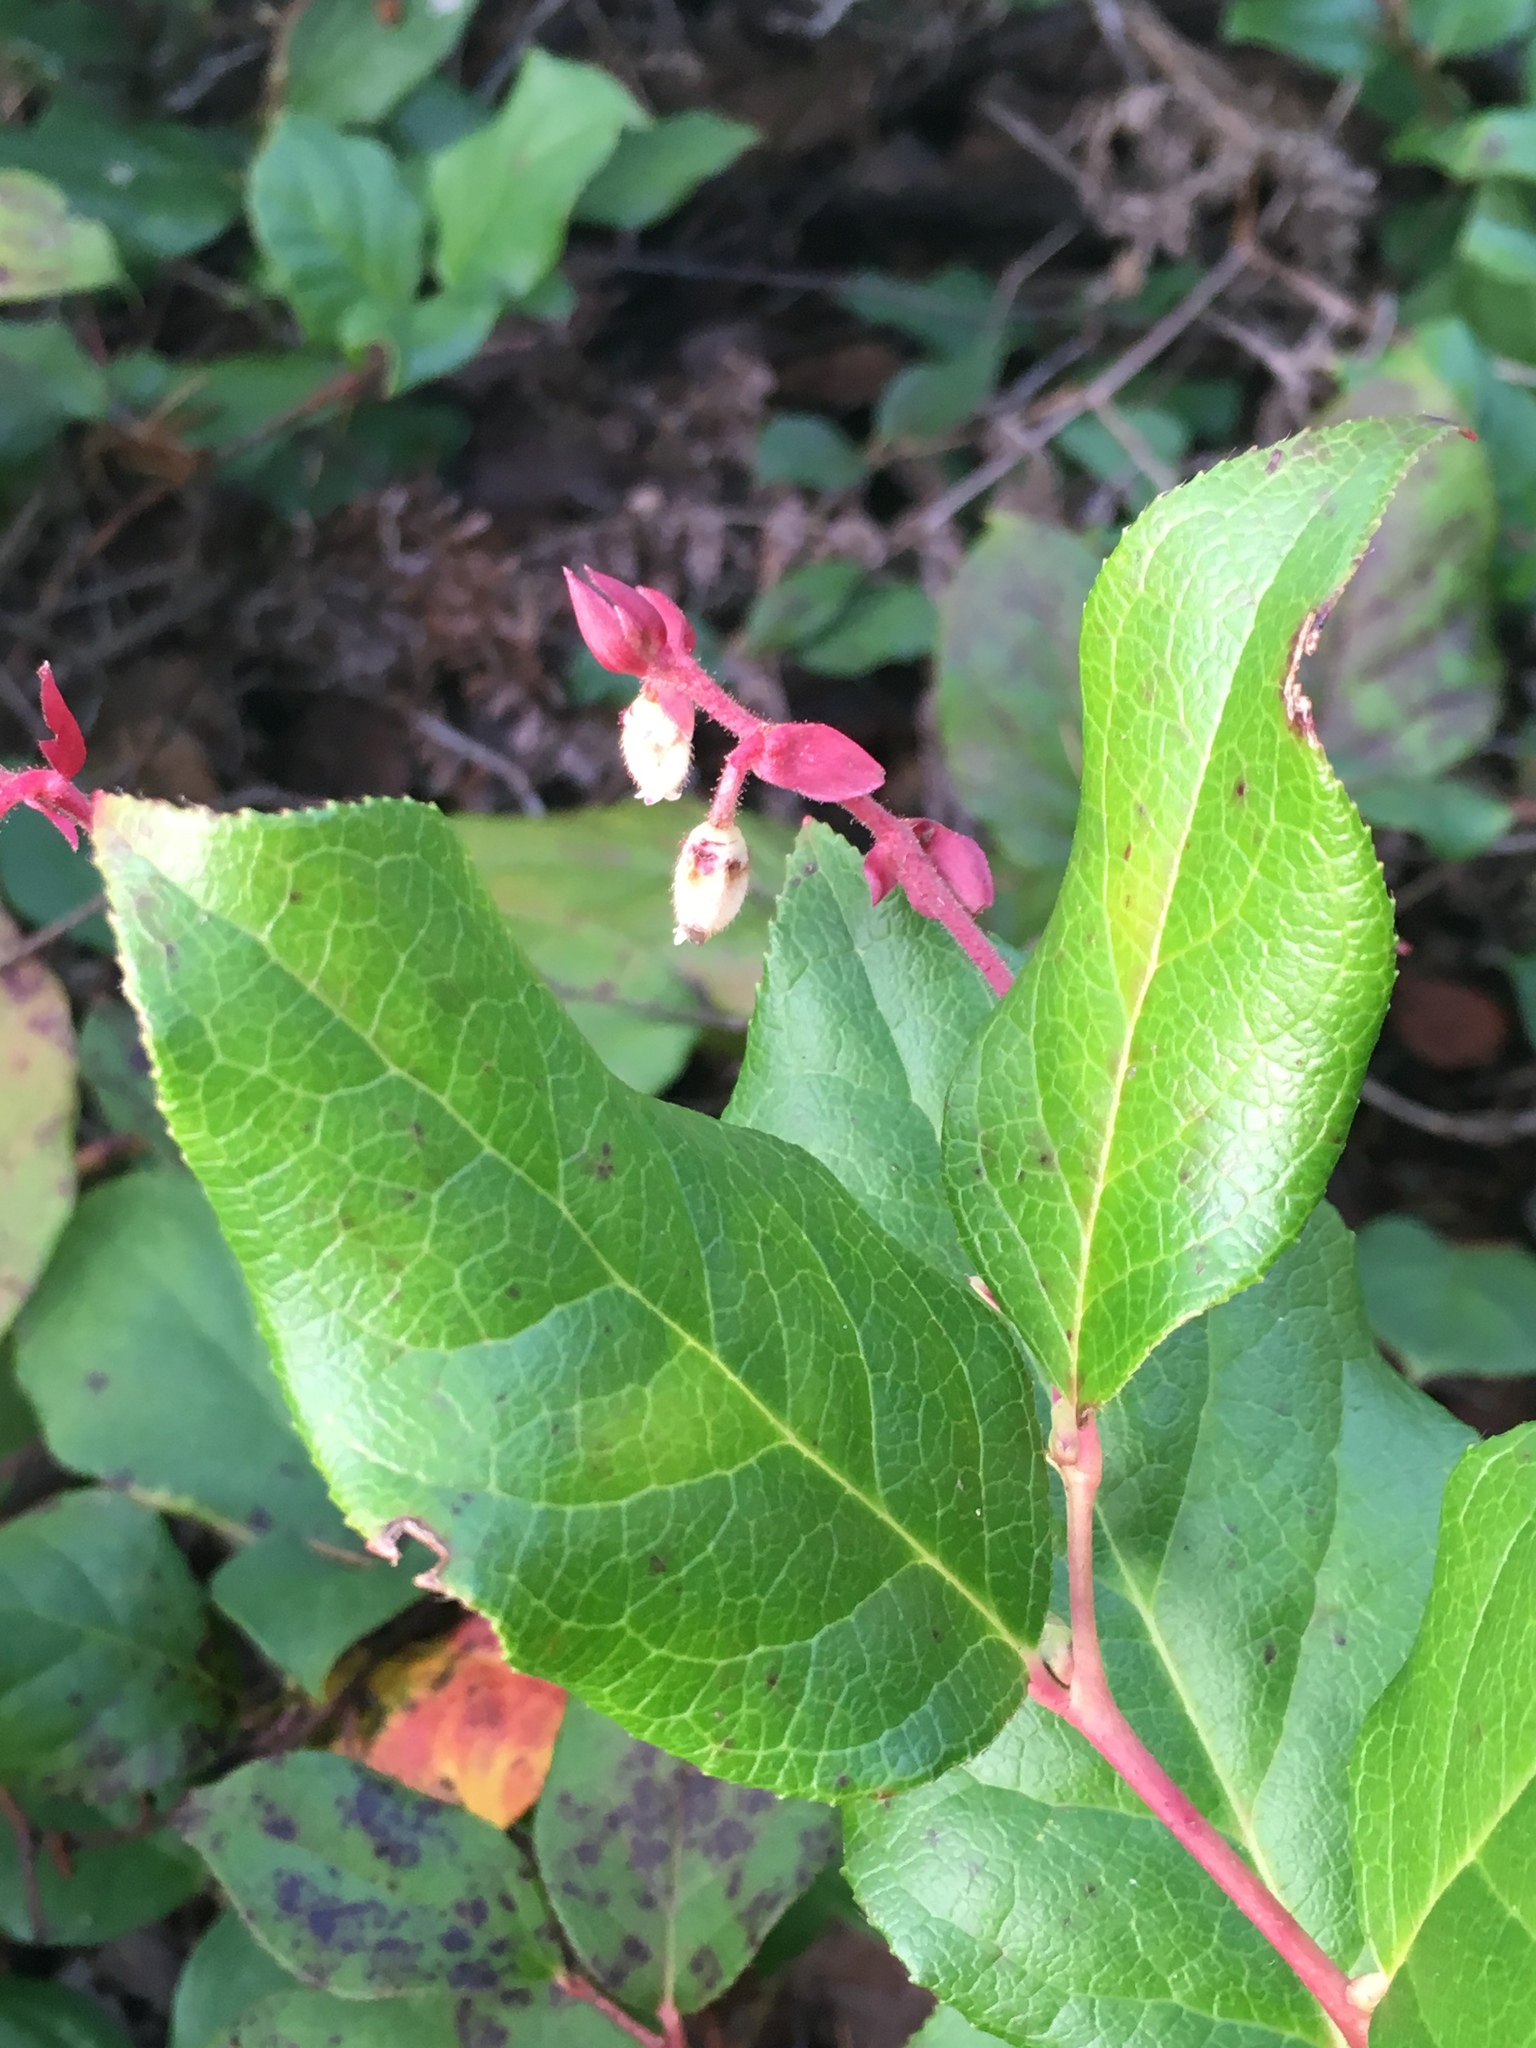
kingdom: Plantae
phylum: Tracheophyta
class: Magnoliopsida
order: Ericales
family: Ericaceae
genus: Gaultheria
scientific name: Gaultheria shallon
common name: Shallon
